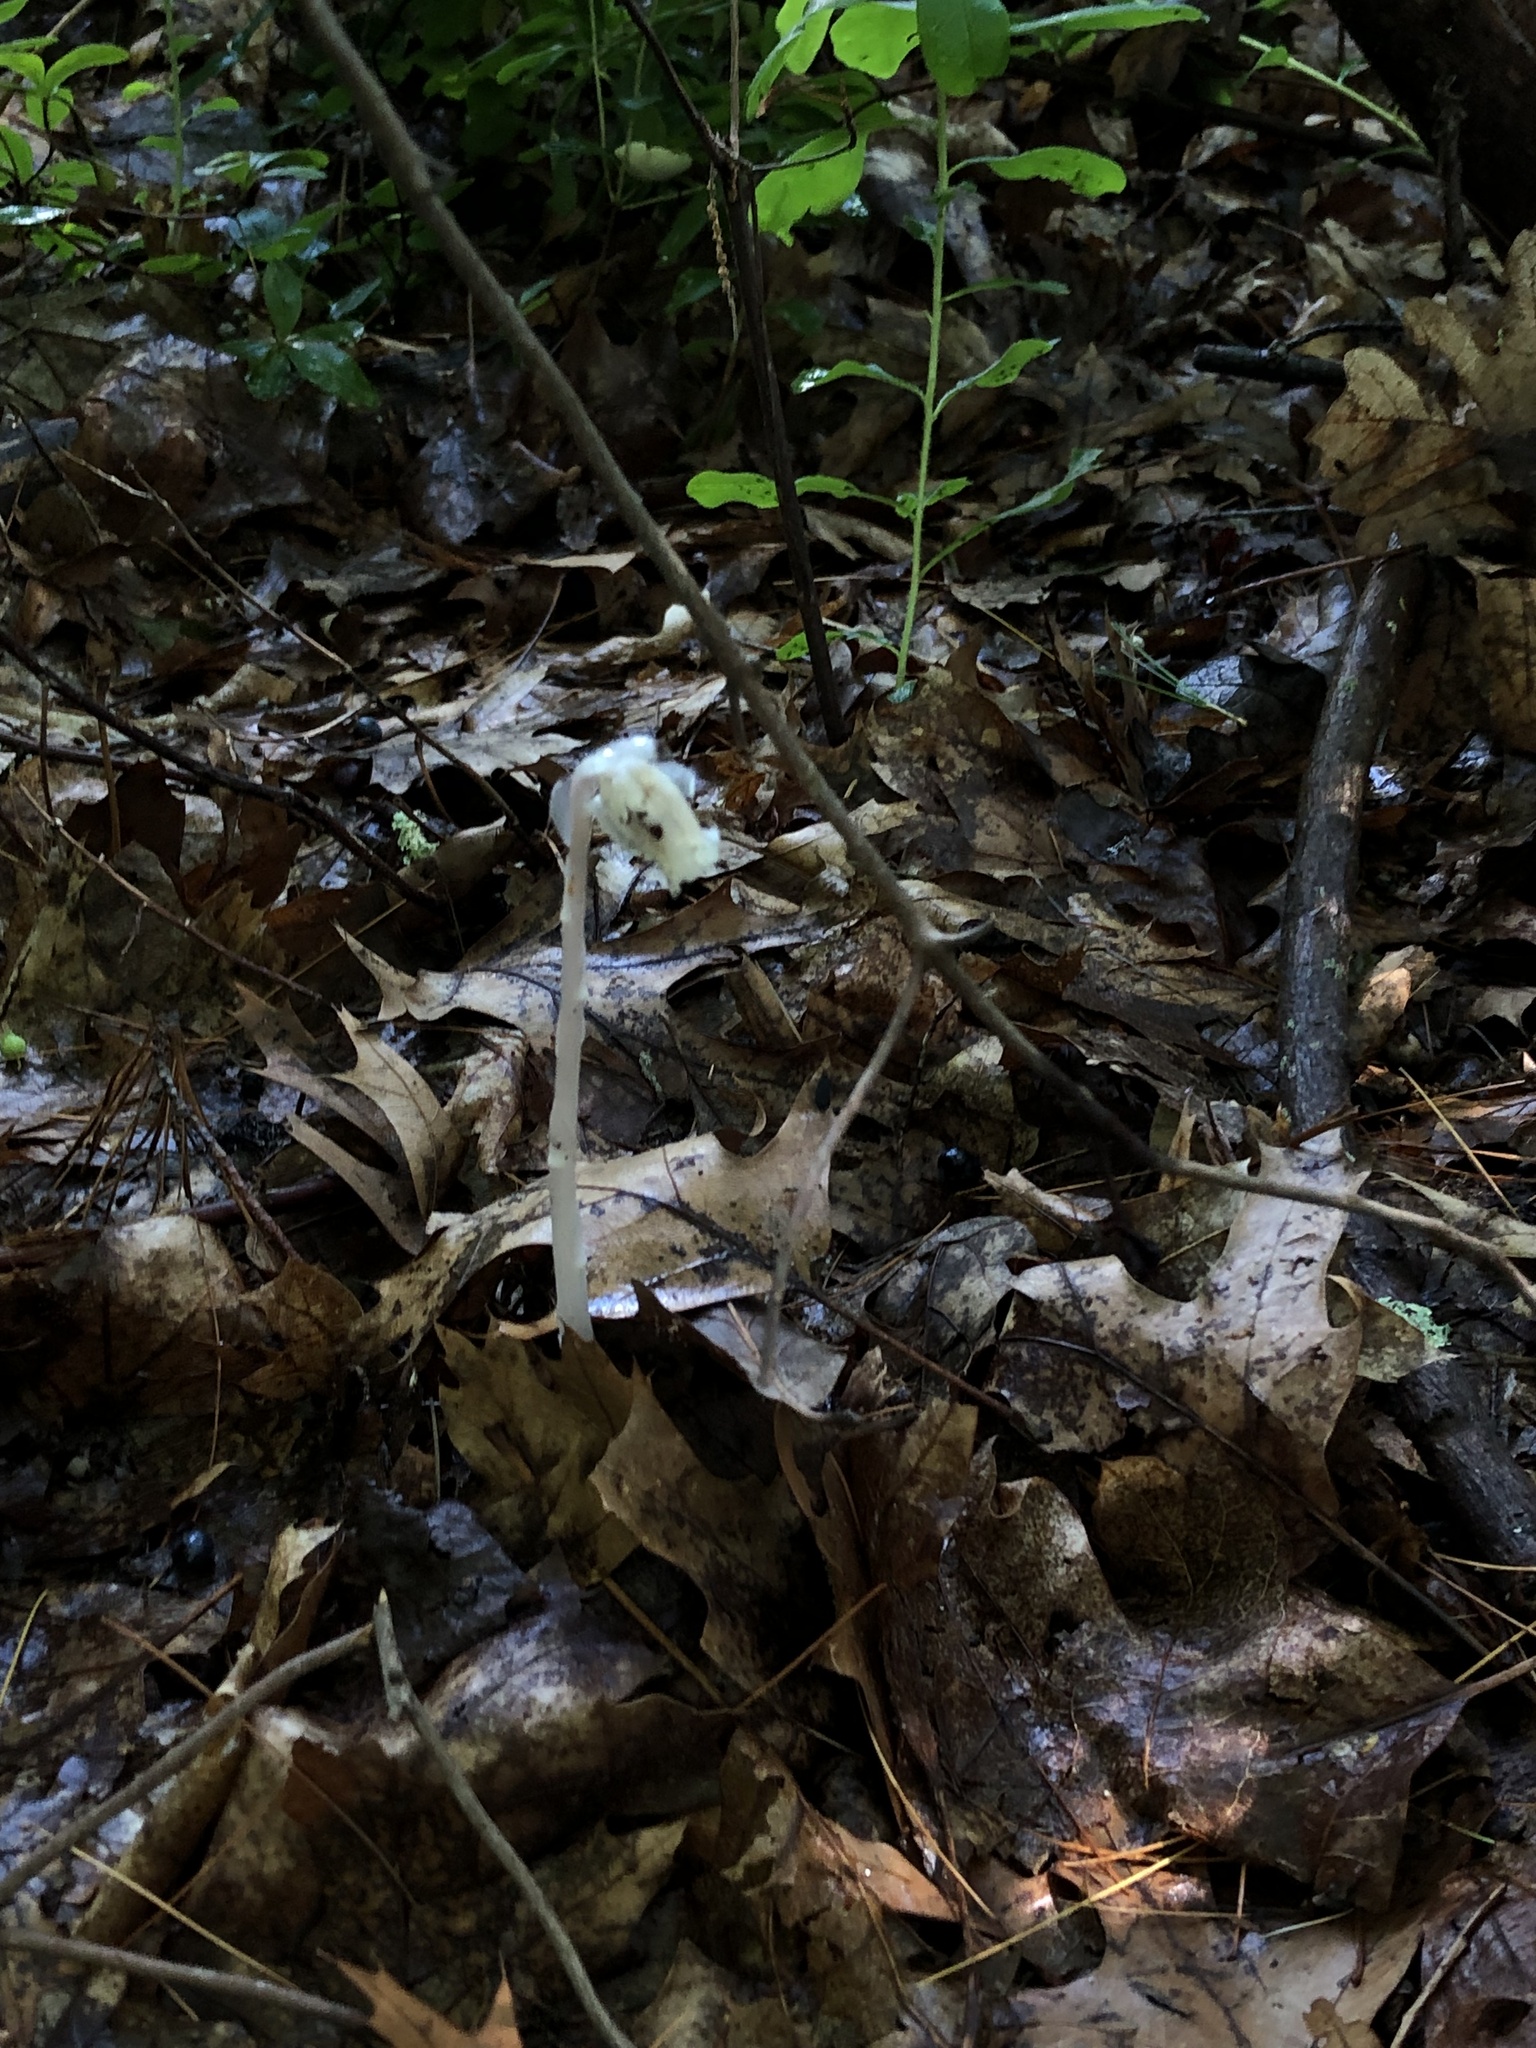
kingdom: Plantae
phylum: Tracheophyta
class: Magnoliopsida
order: Ericales
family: Ericaceae
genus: Monotropa
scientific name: Monotropa uniflora
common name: Convulsion root
